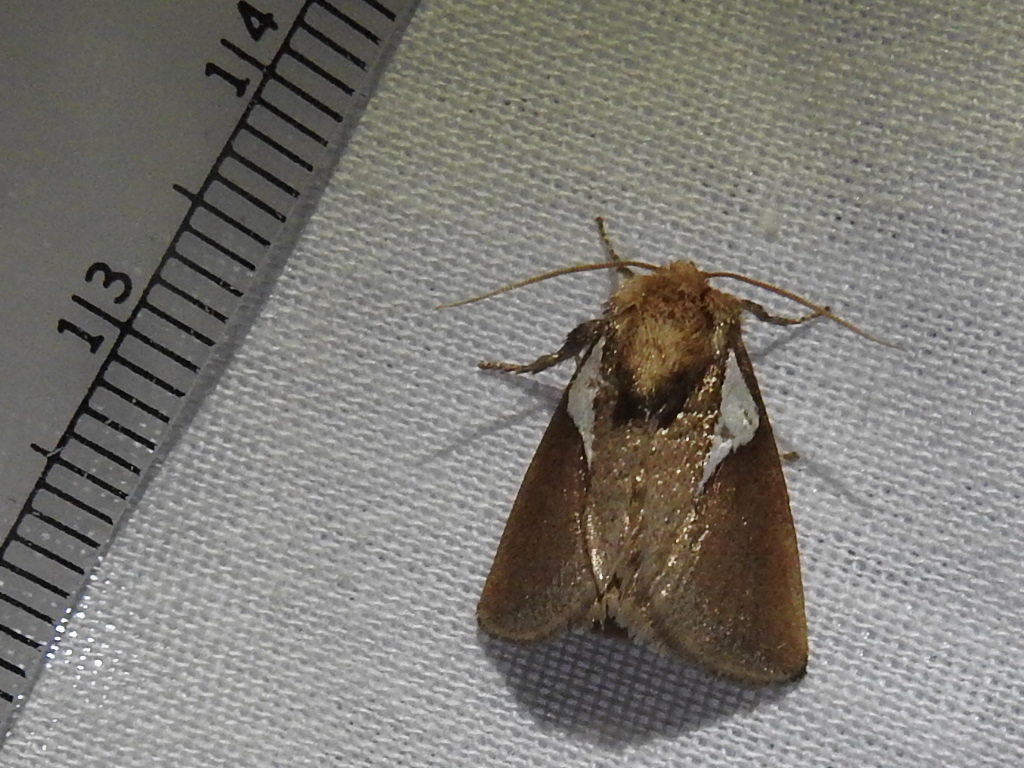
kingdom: Animalia
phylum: Arthropoda
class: Insecta
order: Lepidoptera
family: Limacodidae
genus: Prolimacodes
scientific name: Prolimacodes trigona
